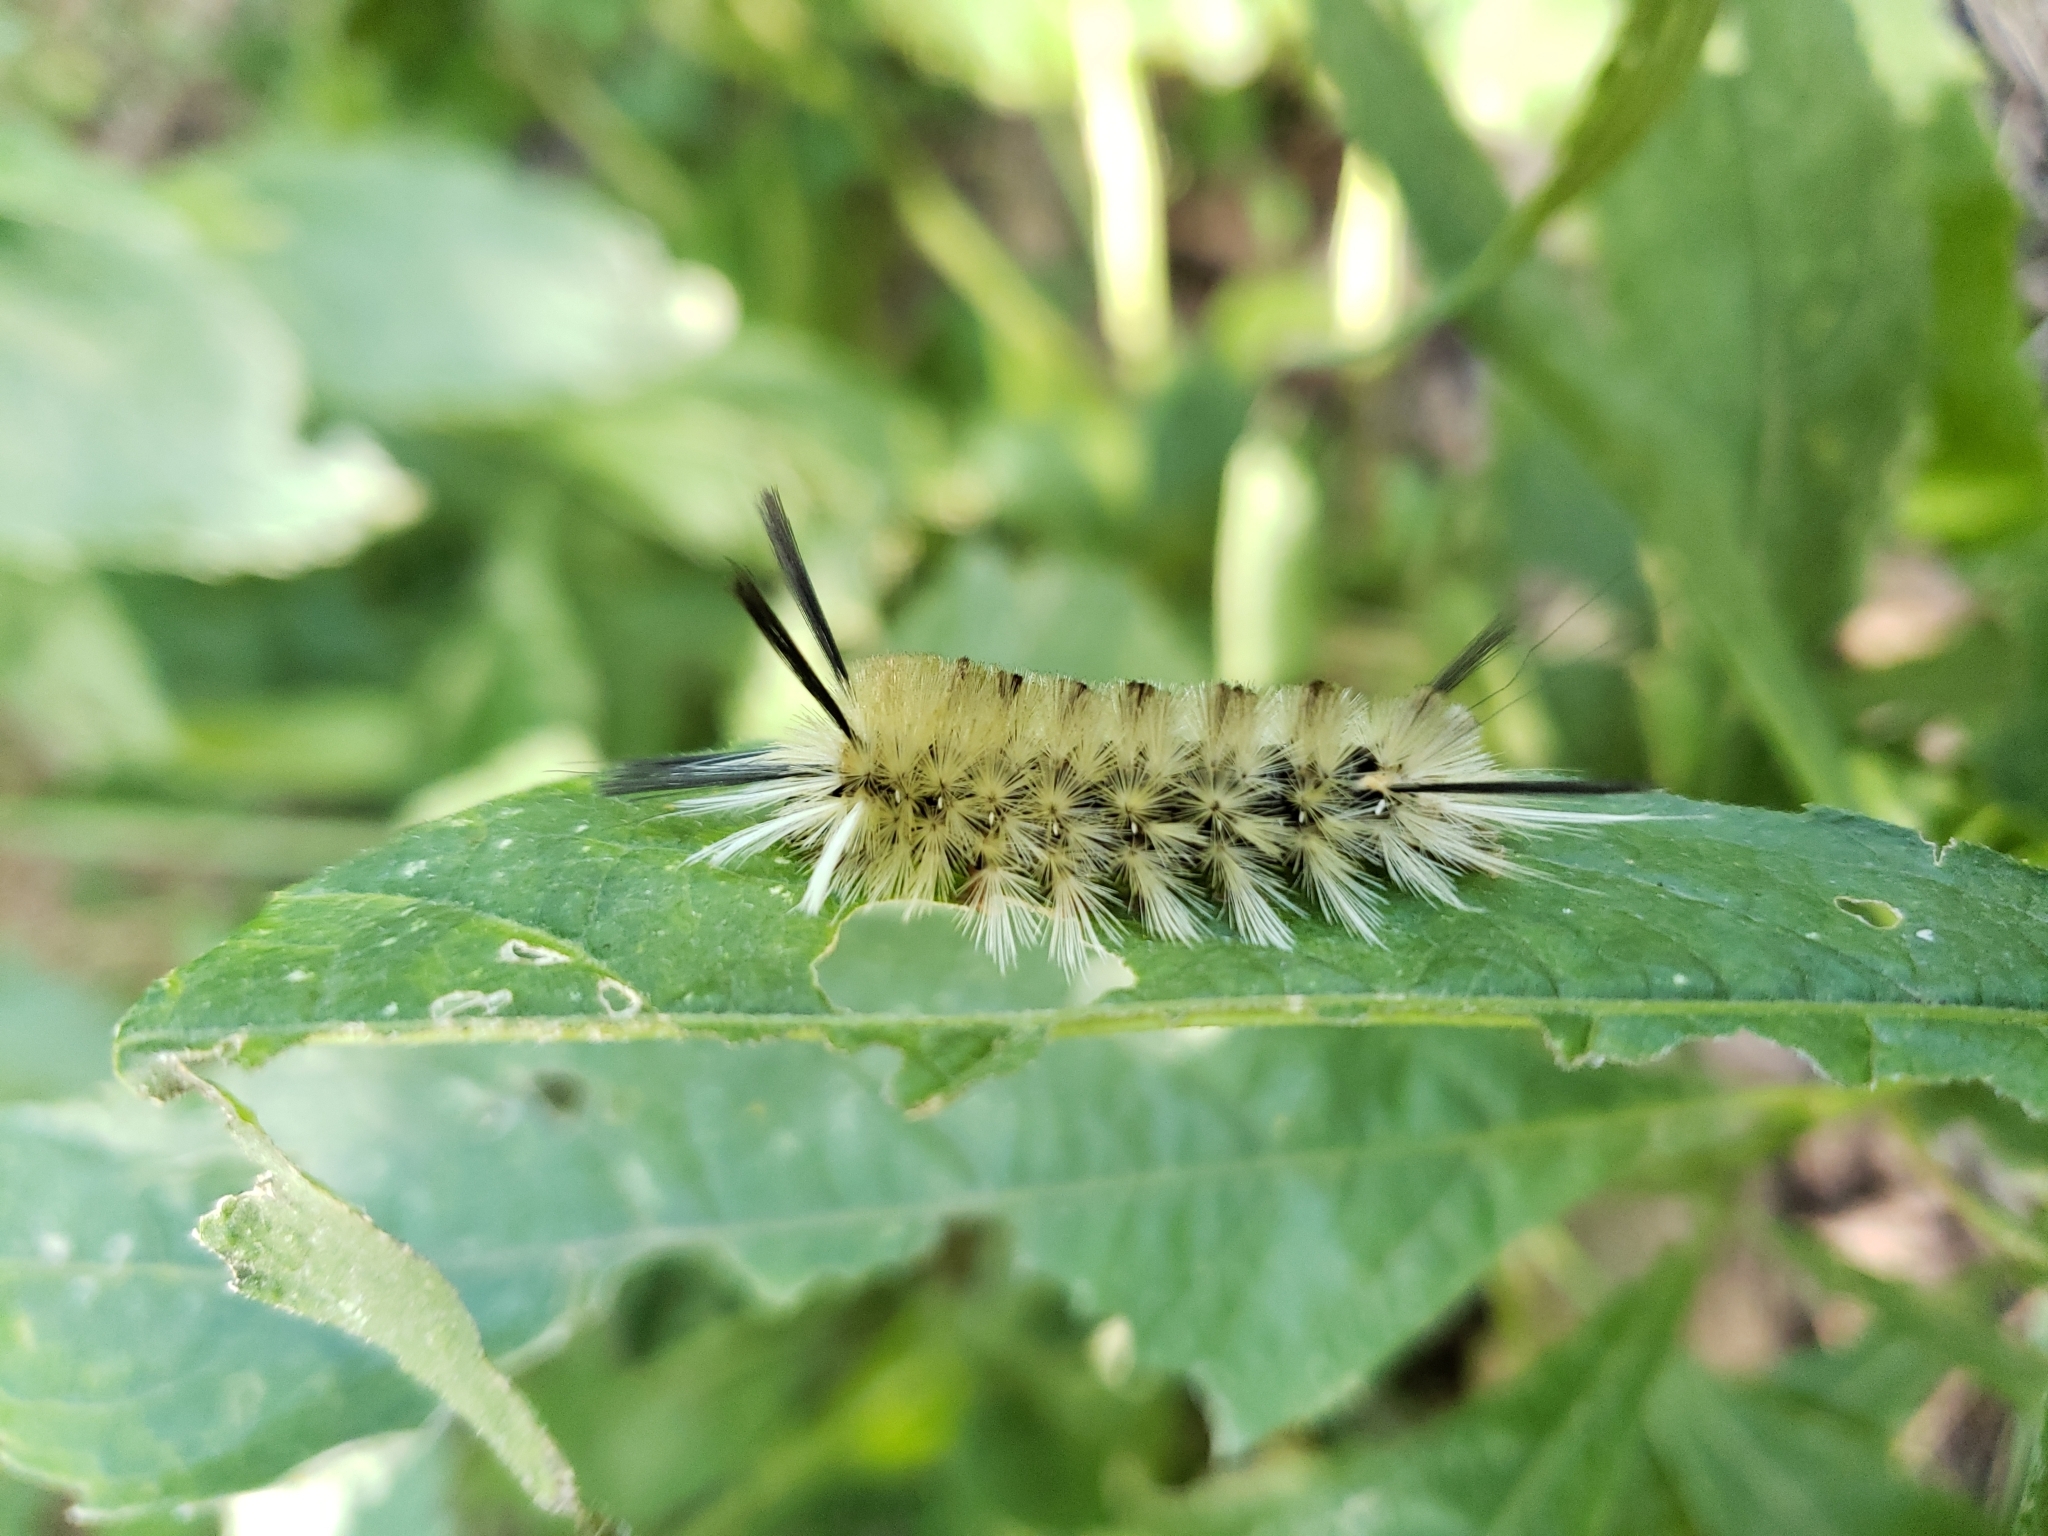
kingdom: Animalia
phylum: Arthropoda
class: Insecta
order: Lepidoptera
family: Erebidae
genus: Halysidota
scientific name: Halysidota tessellaris
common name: Banded tussock moth
